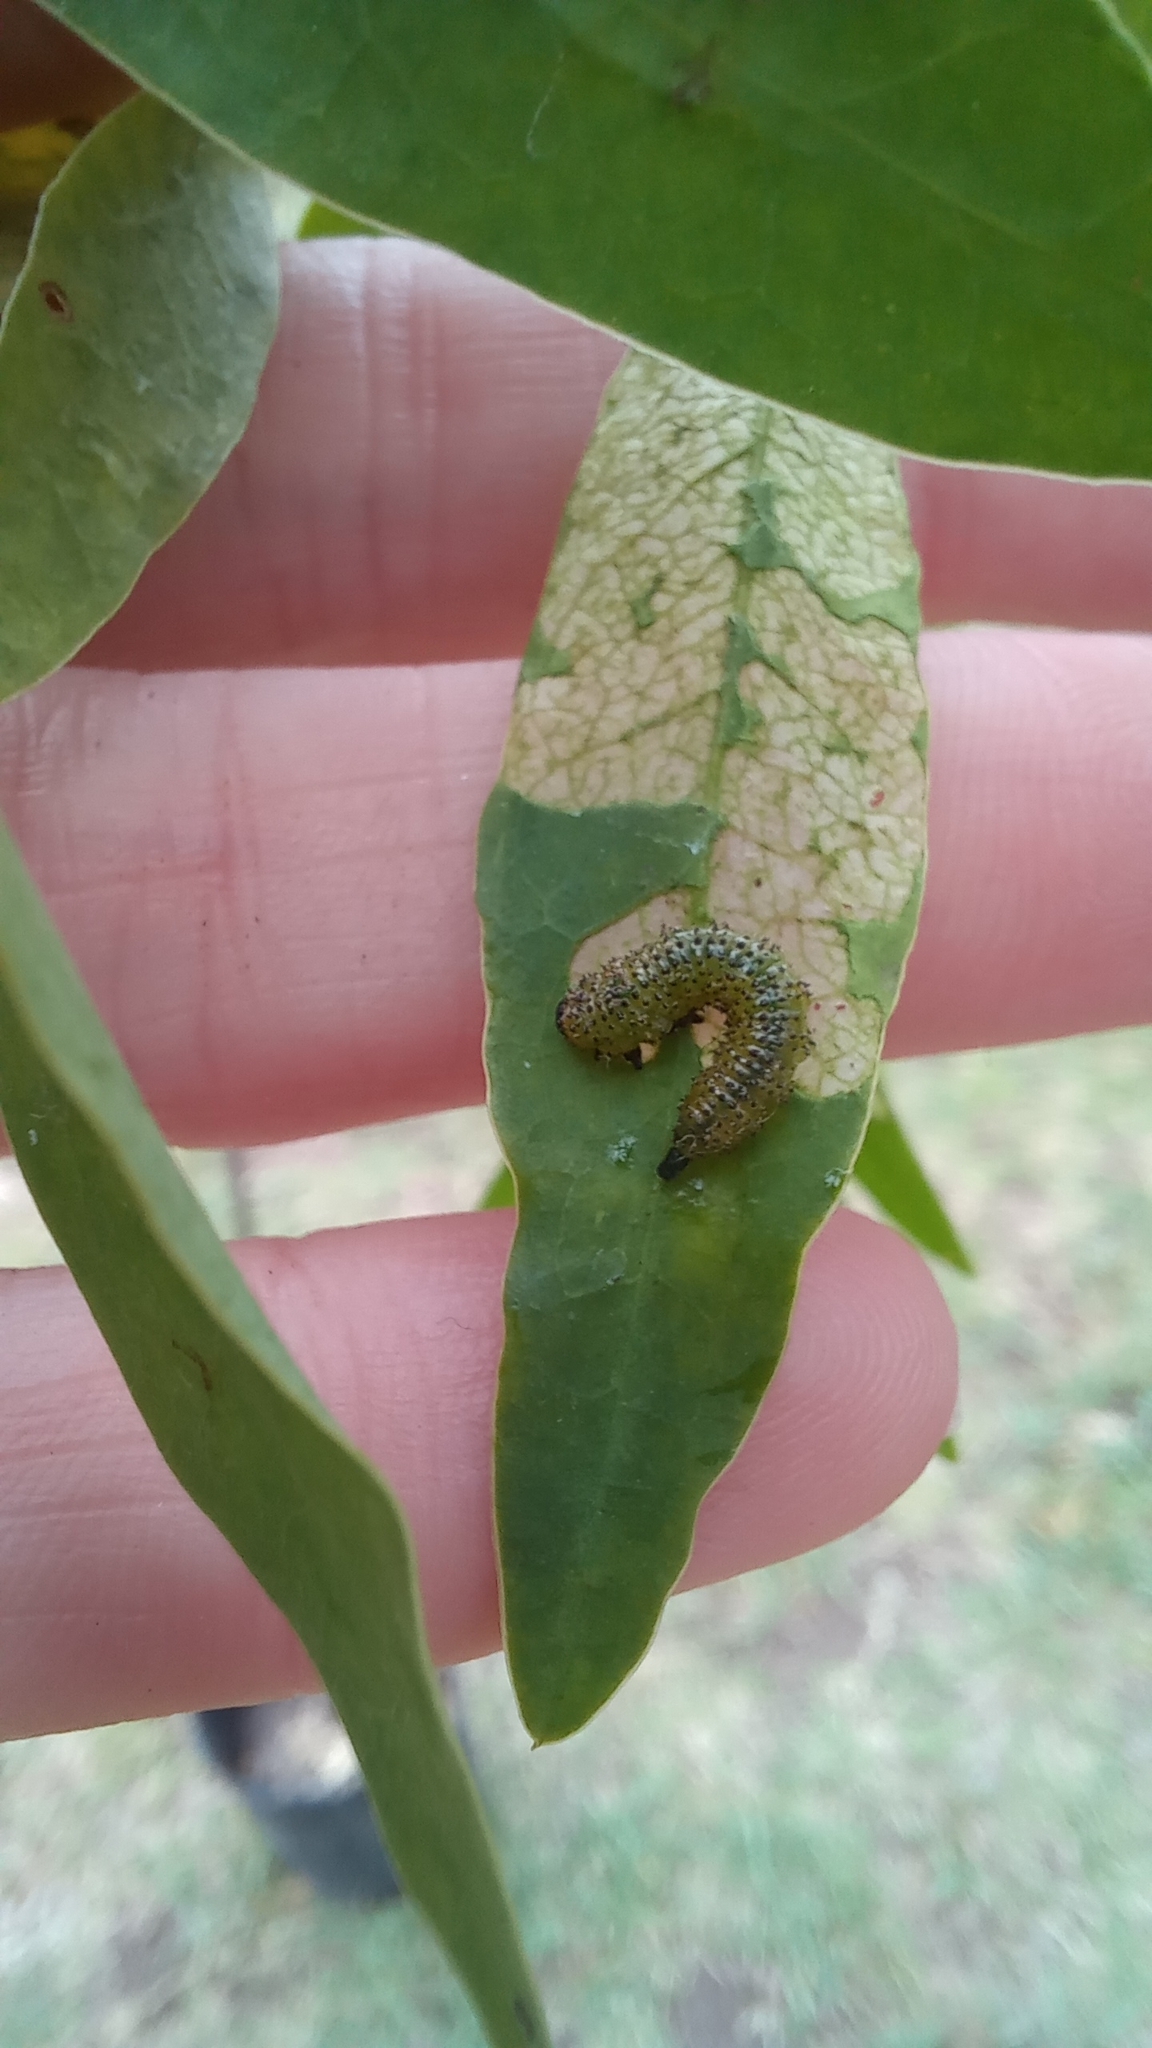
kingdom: Animalia
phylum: Arthropoda
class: Insecta
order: Hymenoptera
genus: Adurgoa
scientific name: Adurgoa
